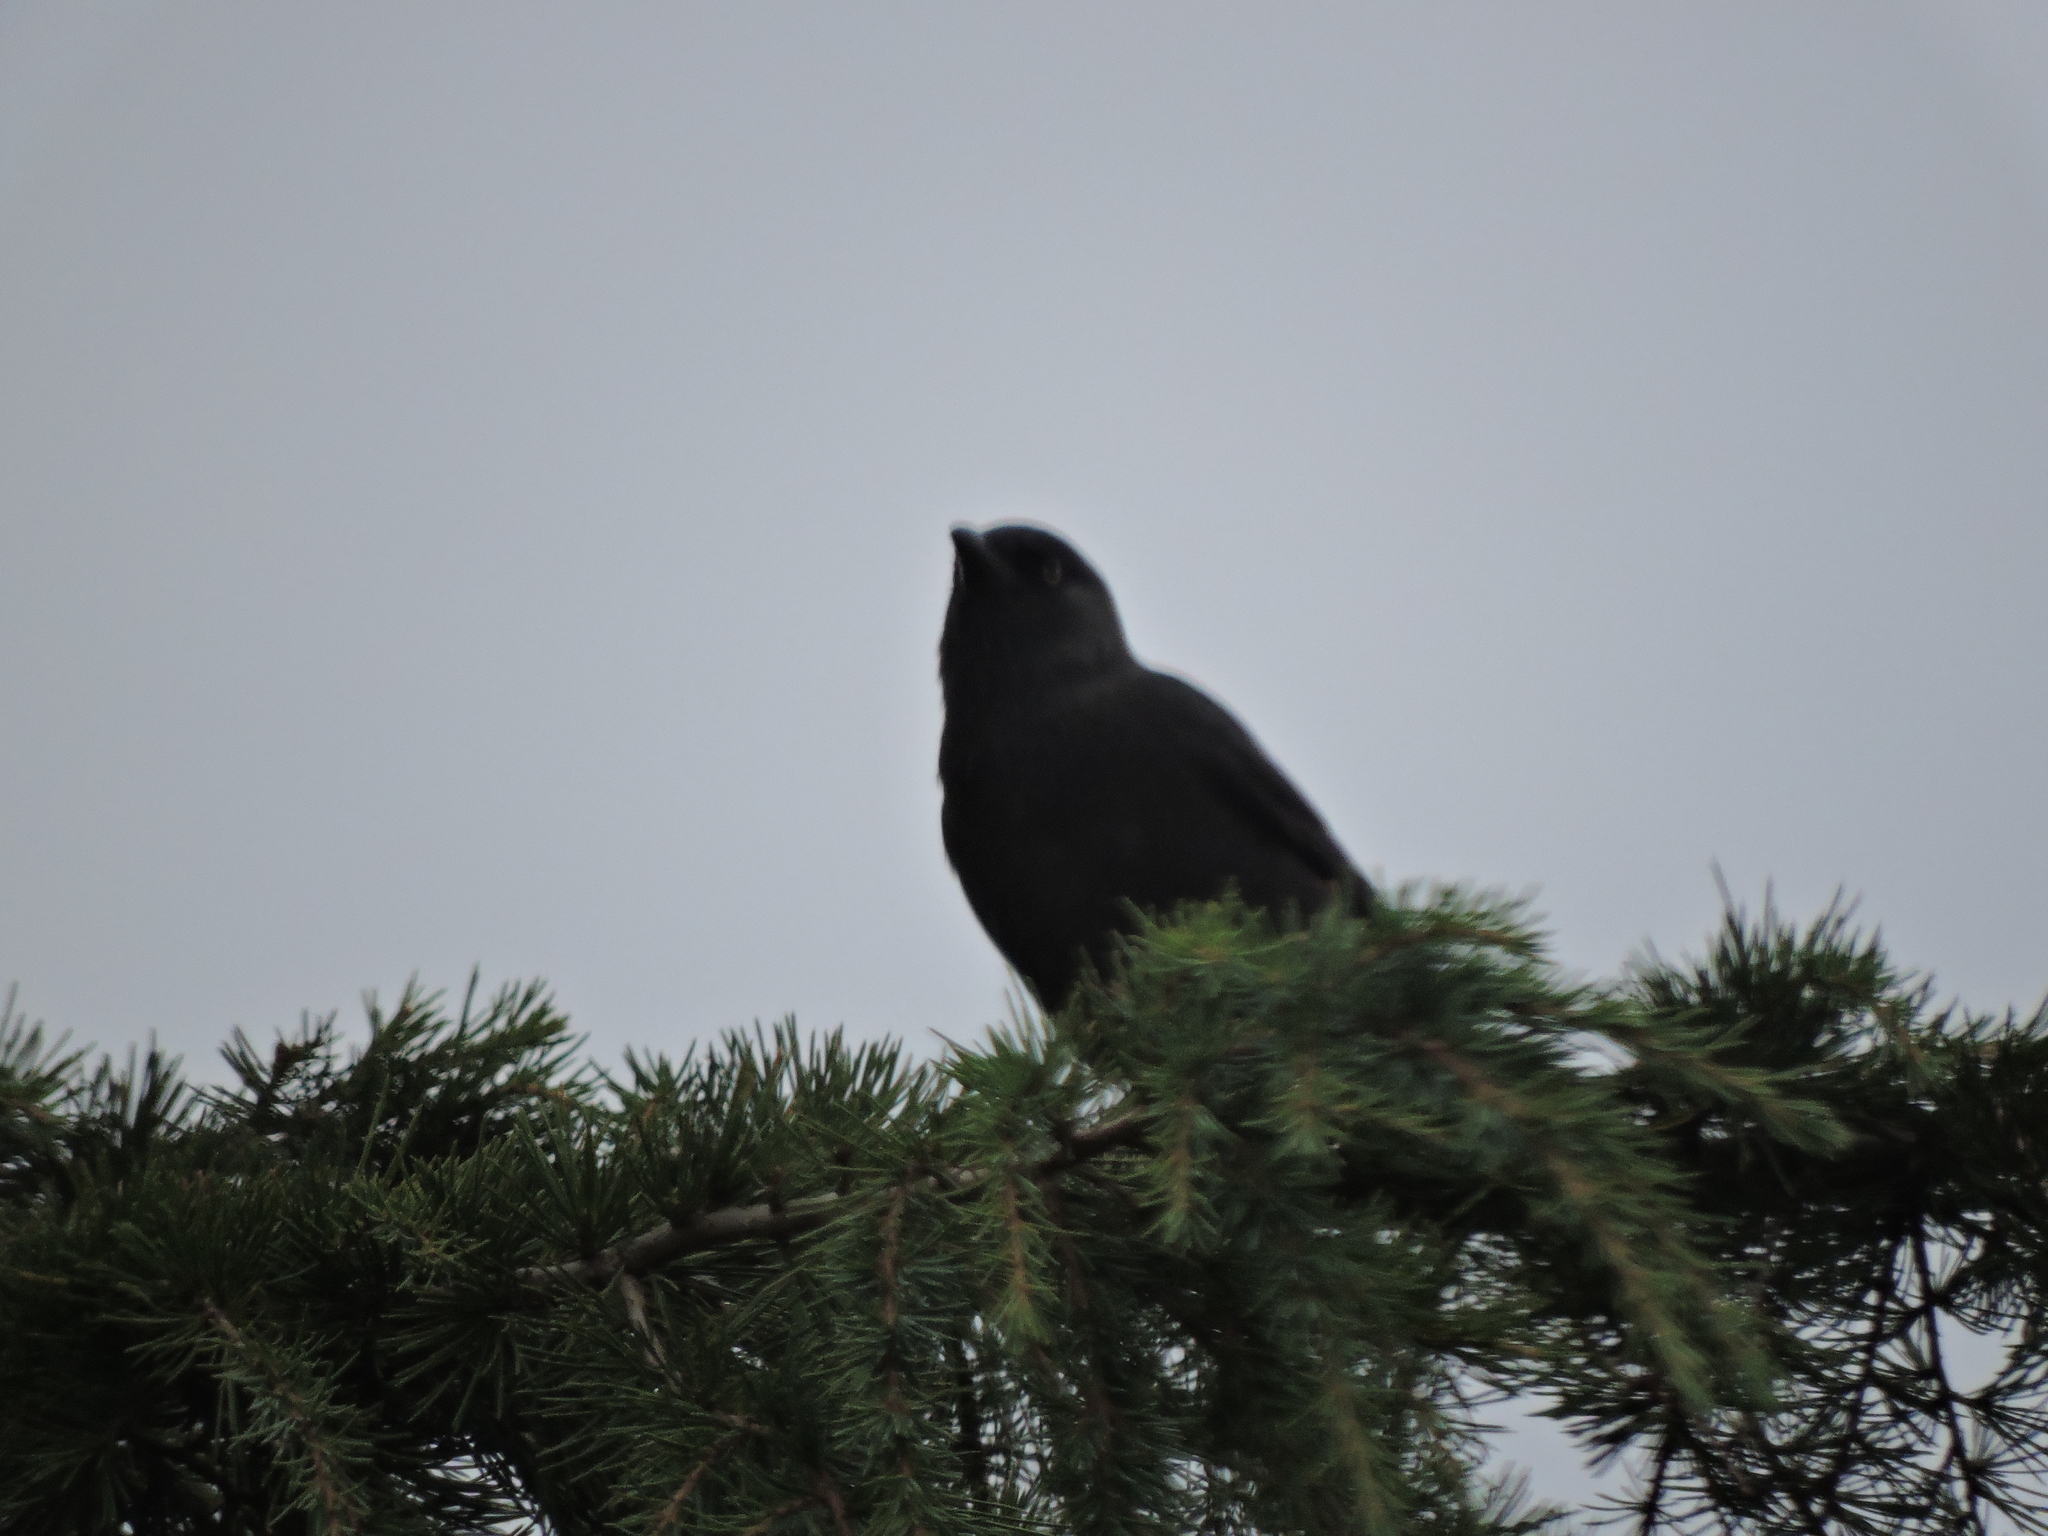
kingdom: Animalia
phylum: Chordata
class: Aves
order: Passeriformes
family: Corvidae
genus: Coloeus
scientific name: Coloeus monedula
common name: Western jackdaw
